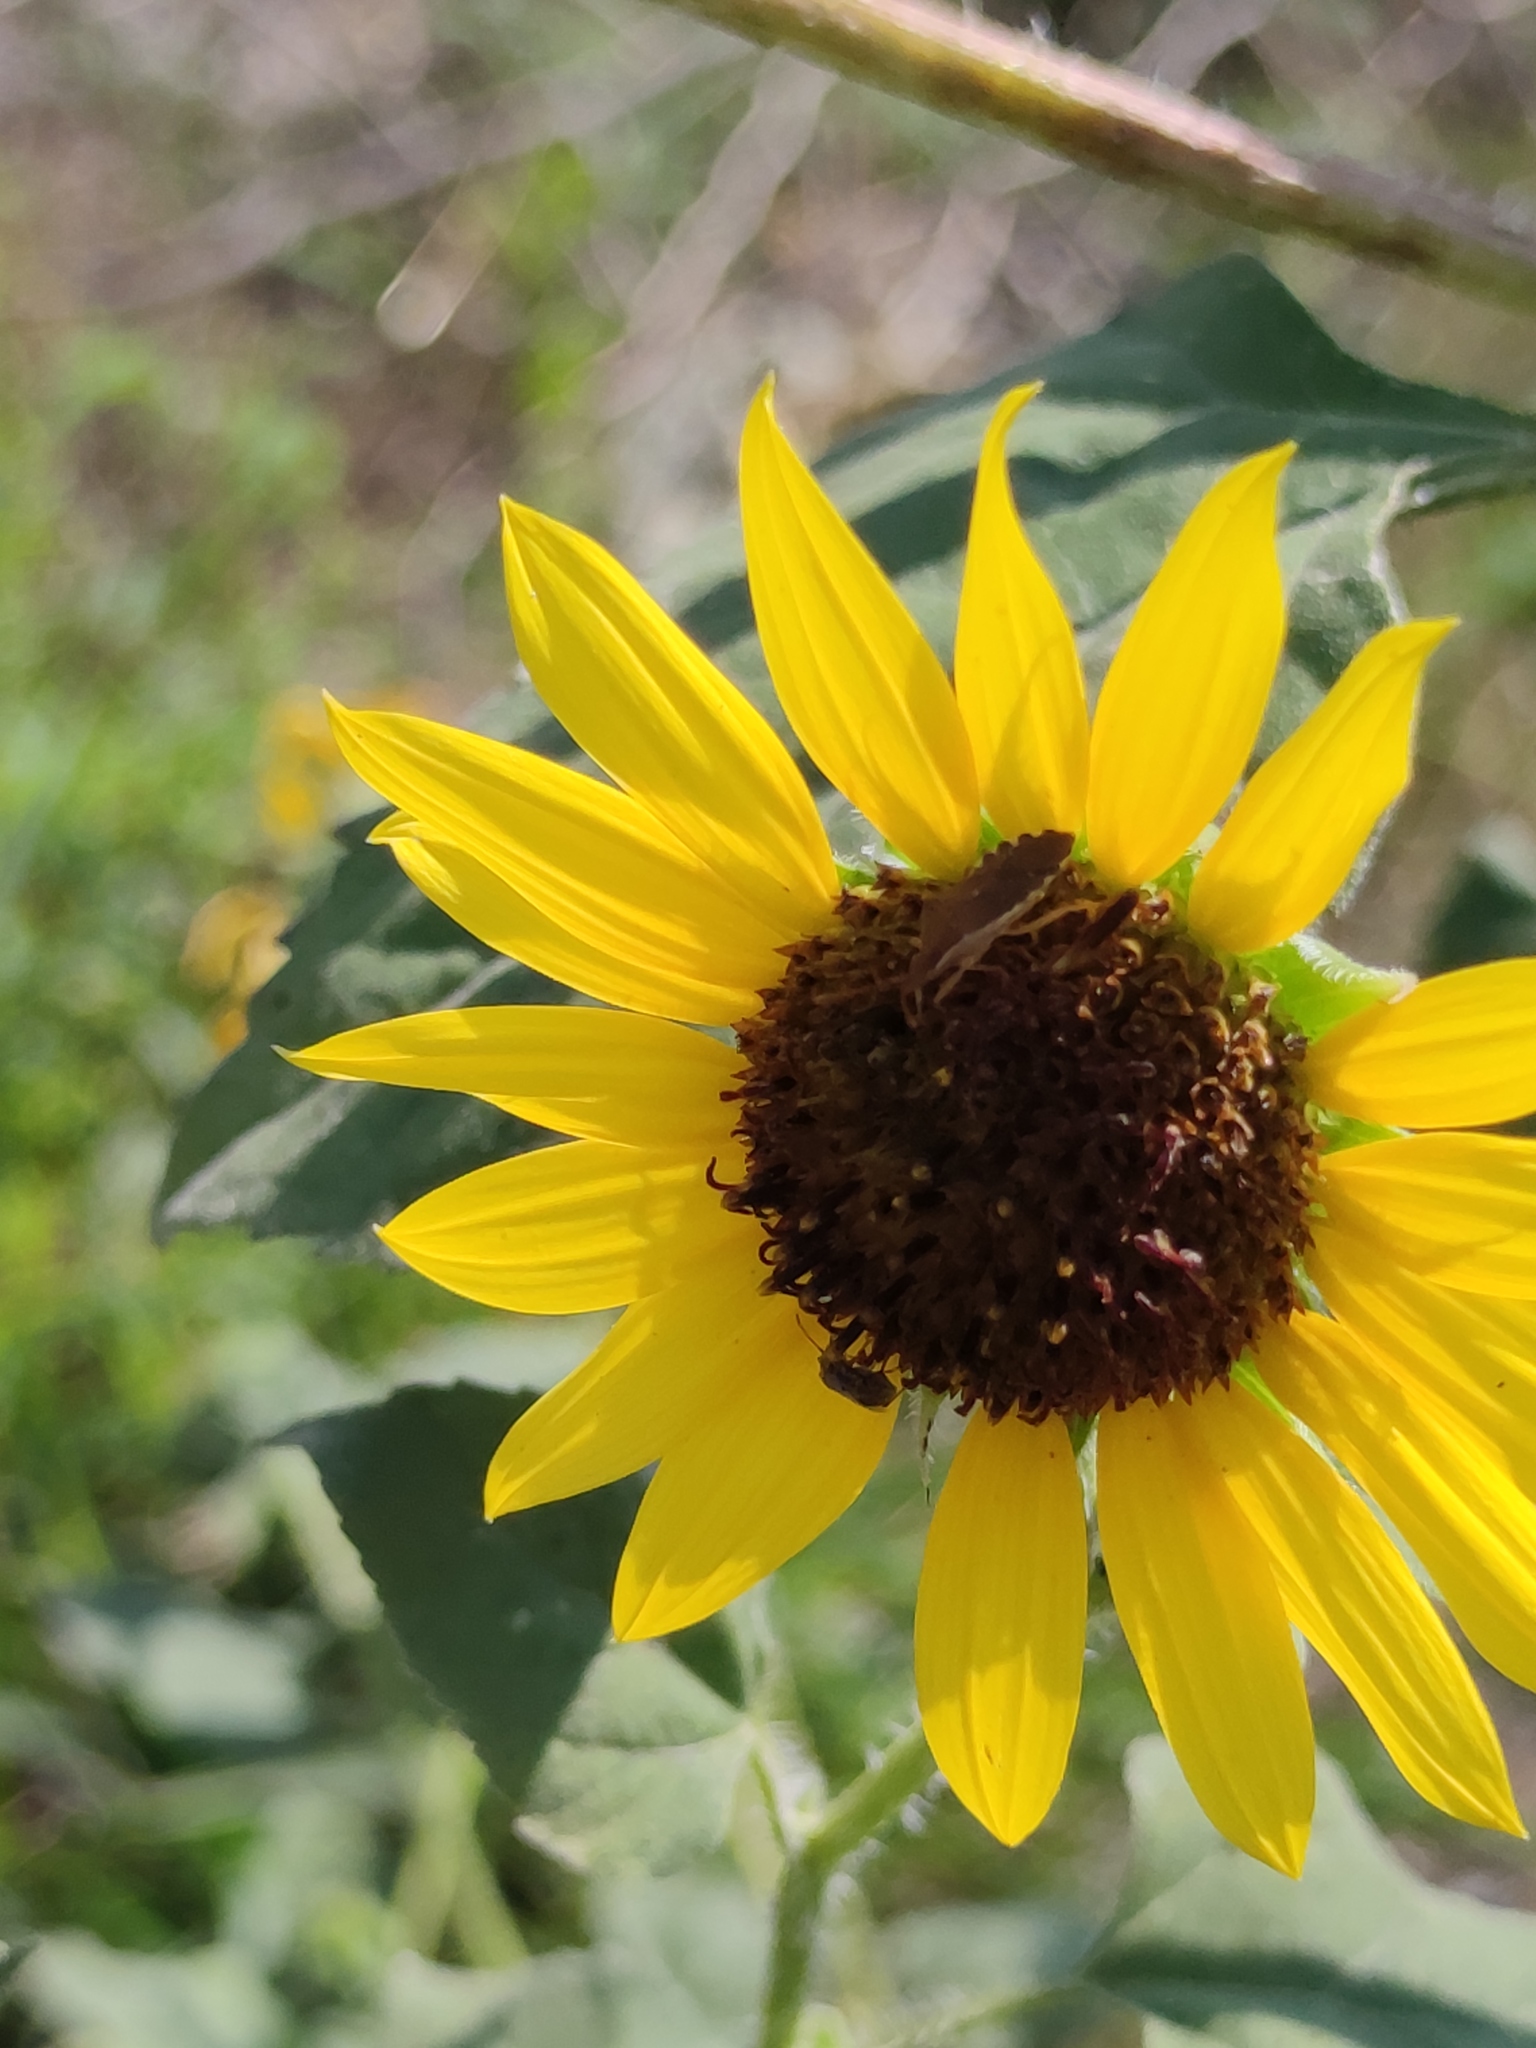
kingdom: Plantae
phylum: Tracheophyta
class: Magnoliopsida
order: Asterales
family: Asteraceae
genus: Helianthus
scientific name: Helianthus annuus
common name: Sunflower
